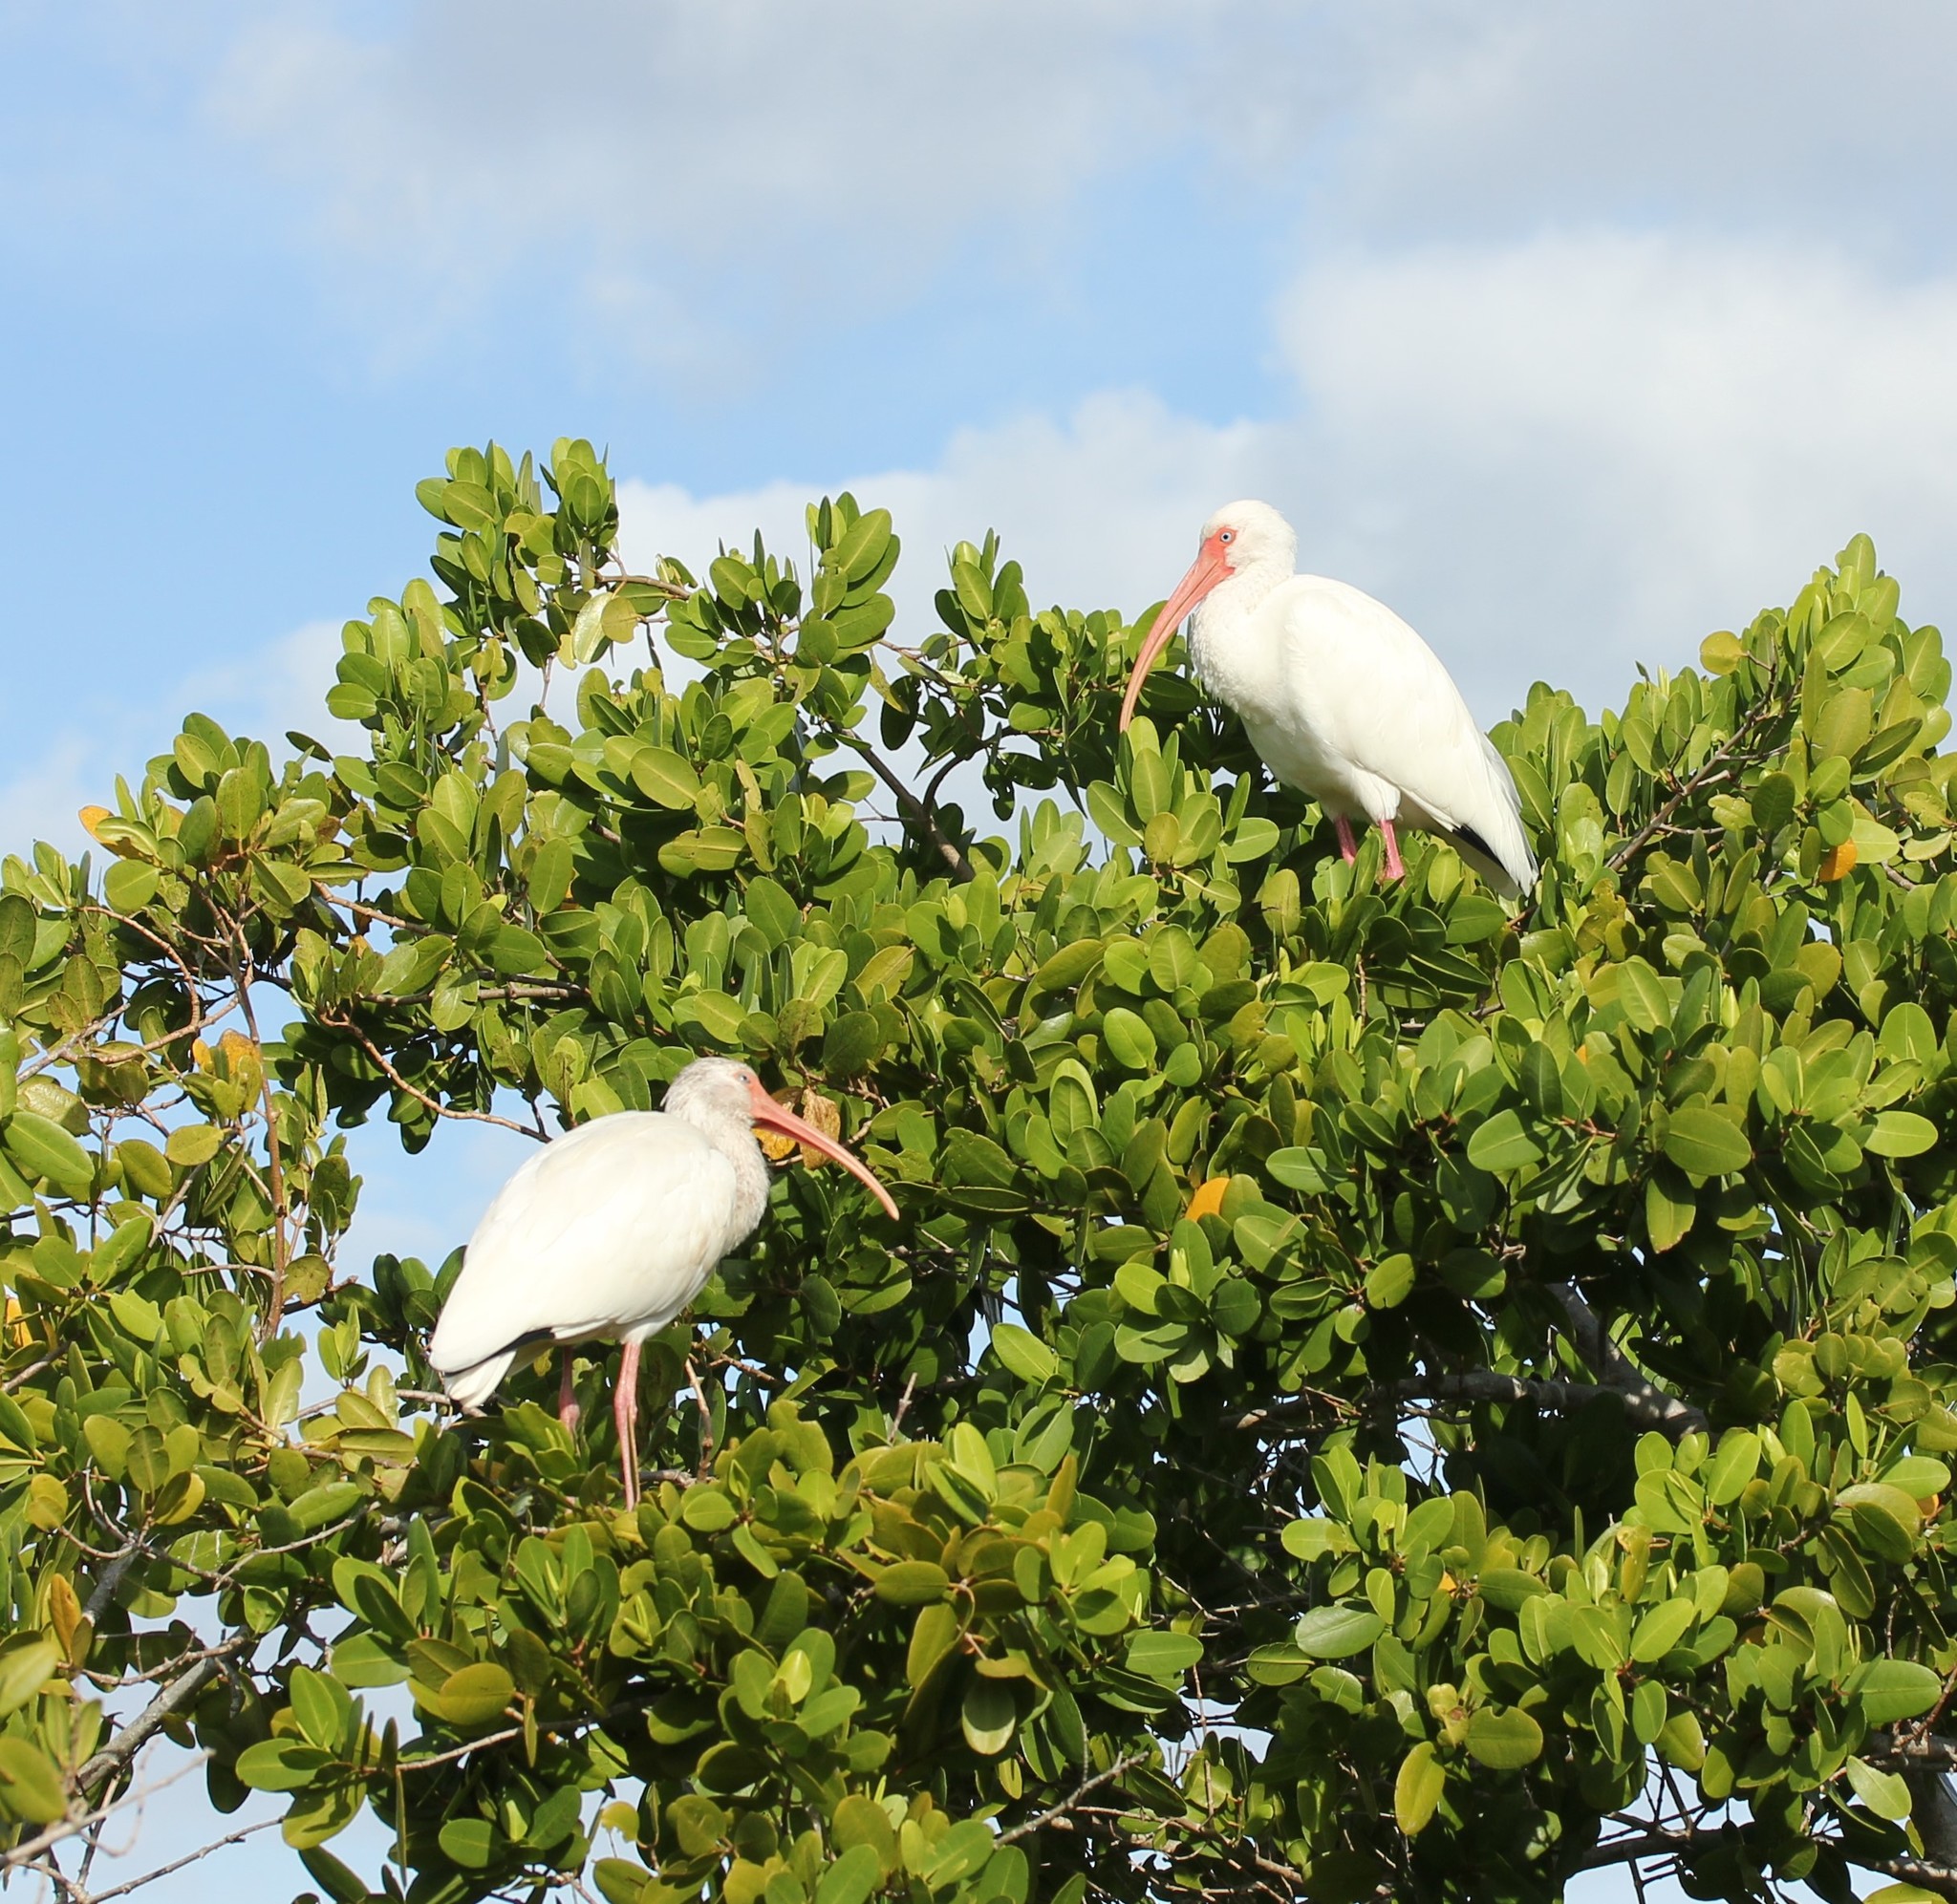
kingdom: Animalia
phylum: Chordata
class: Aves
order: Pelecaniformes
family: Threskiornithidae
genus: Eudocimus
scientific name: Eudocimus albus
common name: White ibis
